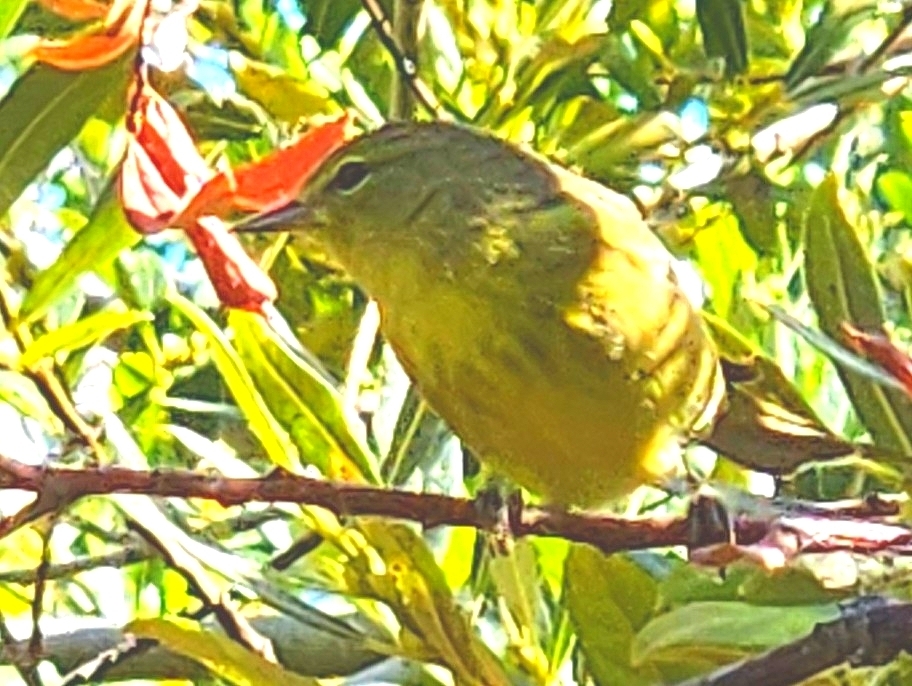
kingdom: Animalia
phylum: Chordata
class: Aves
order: Passeriformes
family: Parulidae
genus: Leiothlypis
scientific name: Leiothlypis celata
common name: Orange-crowned warbler
